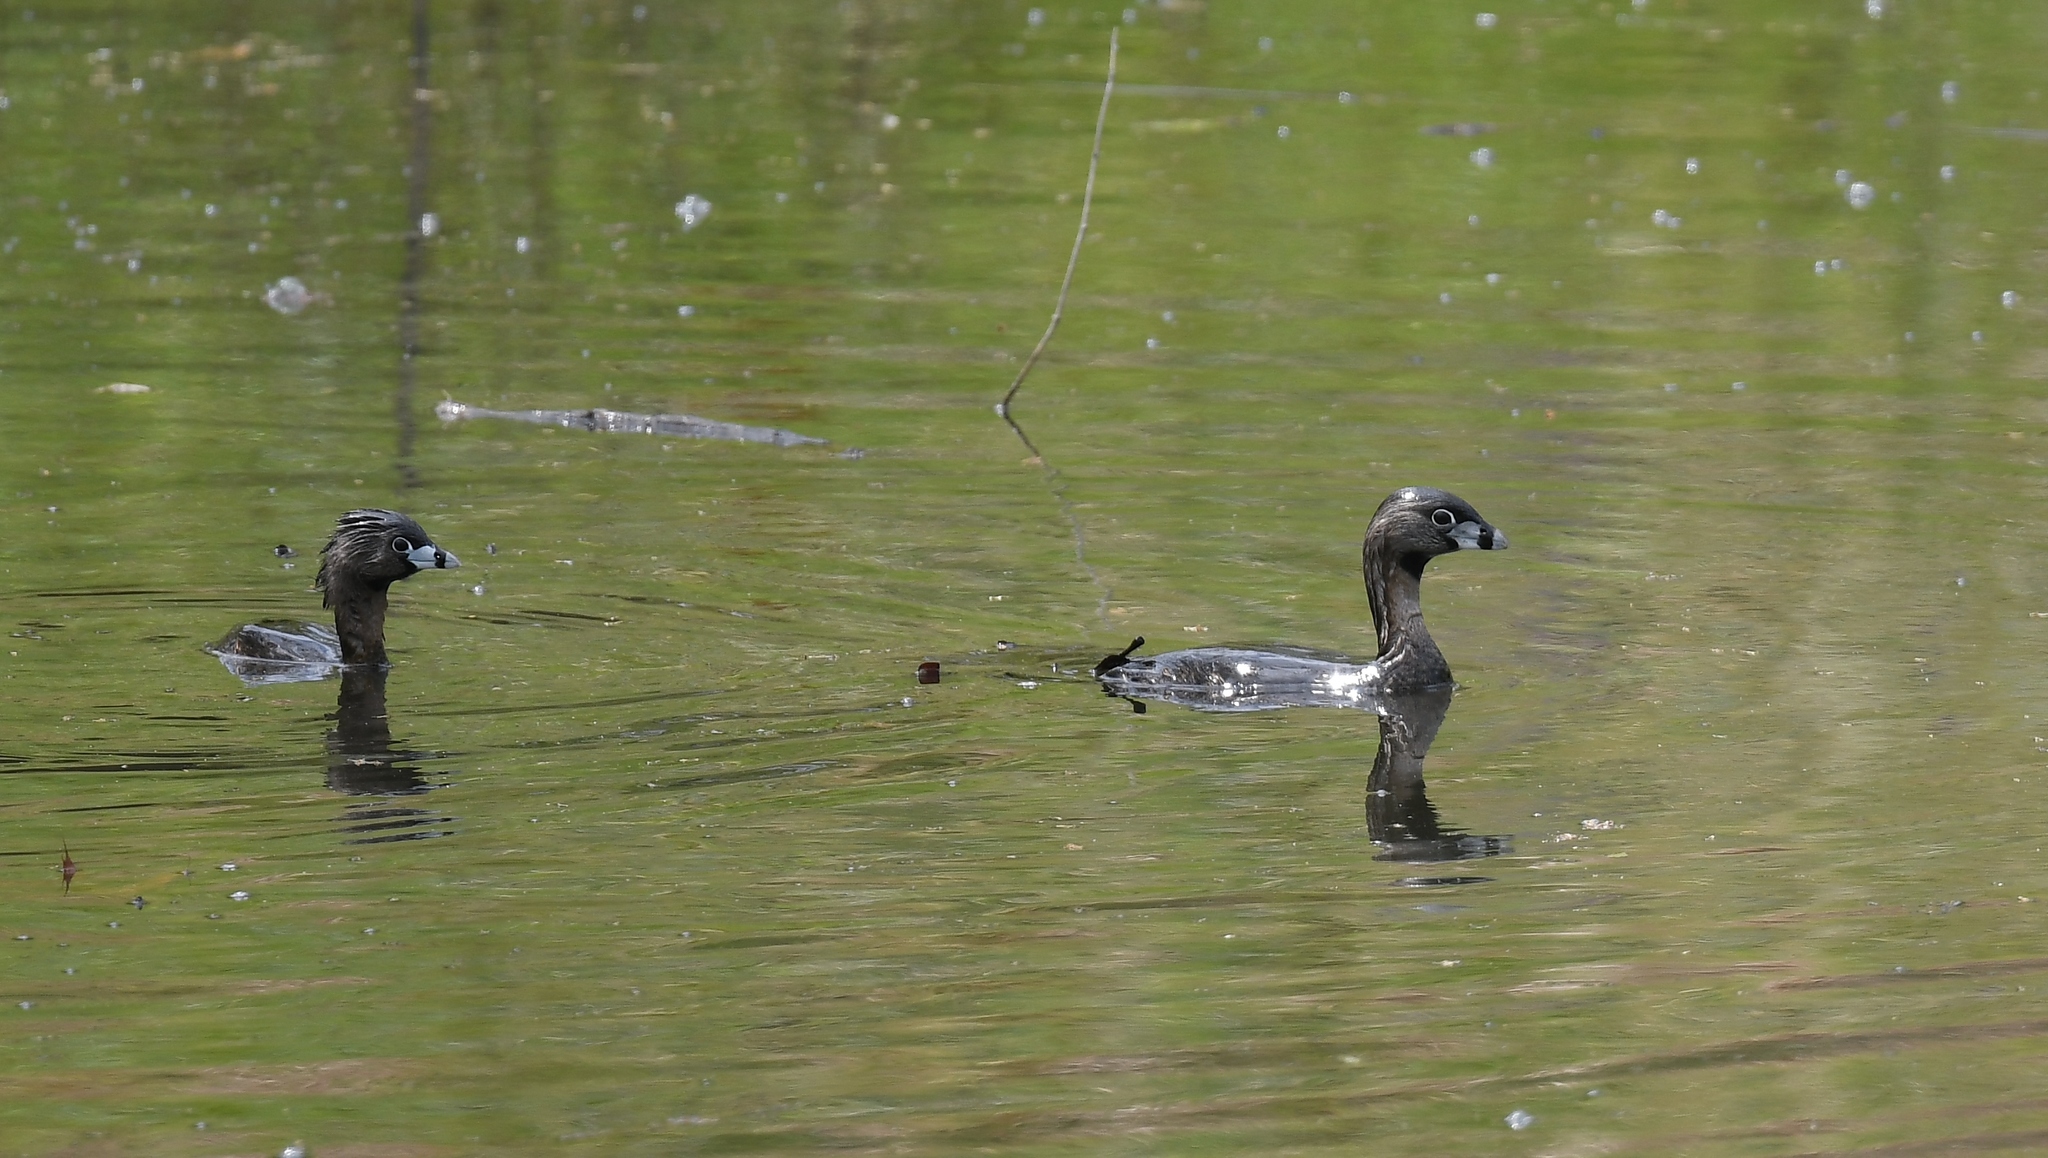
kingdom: Animalia
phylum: Chordata
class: Aves
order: Podicipediformes
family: Podicipedidae
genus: Podilymbus
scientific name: Podilymbus podiceps
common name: Pied-billed grebe
